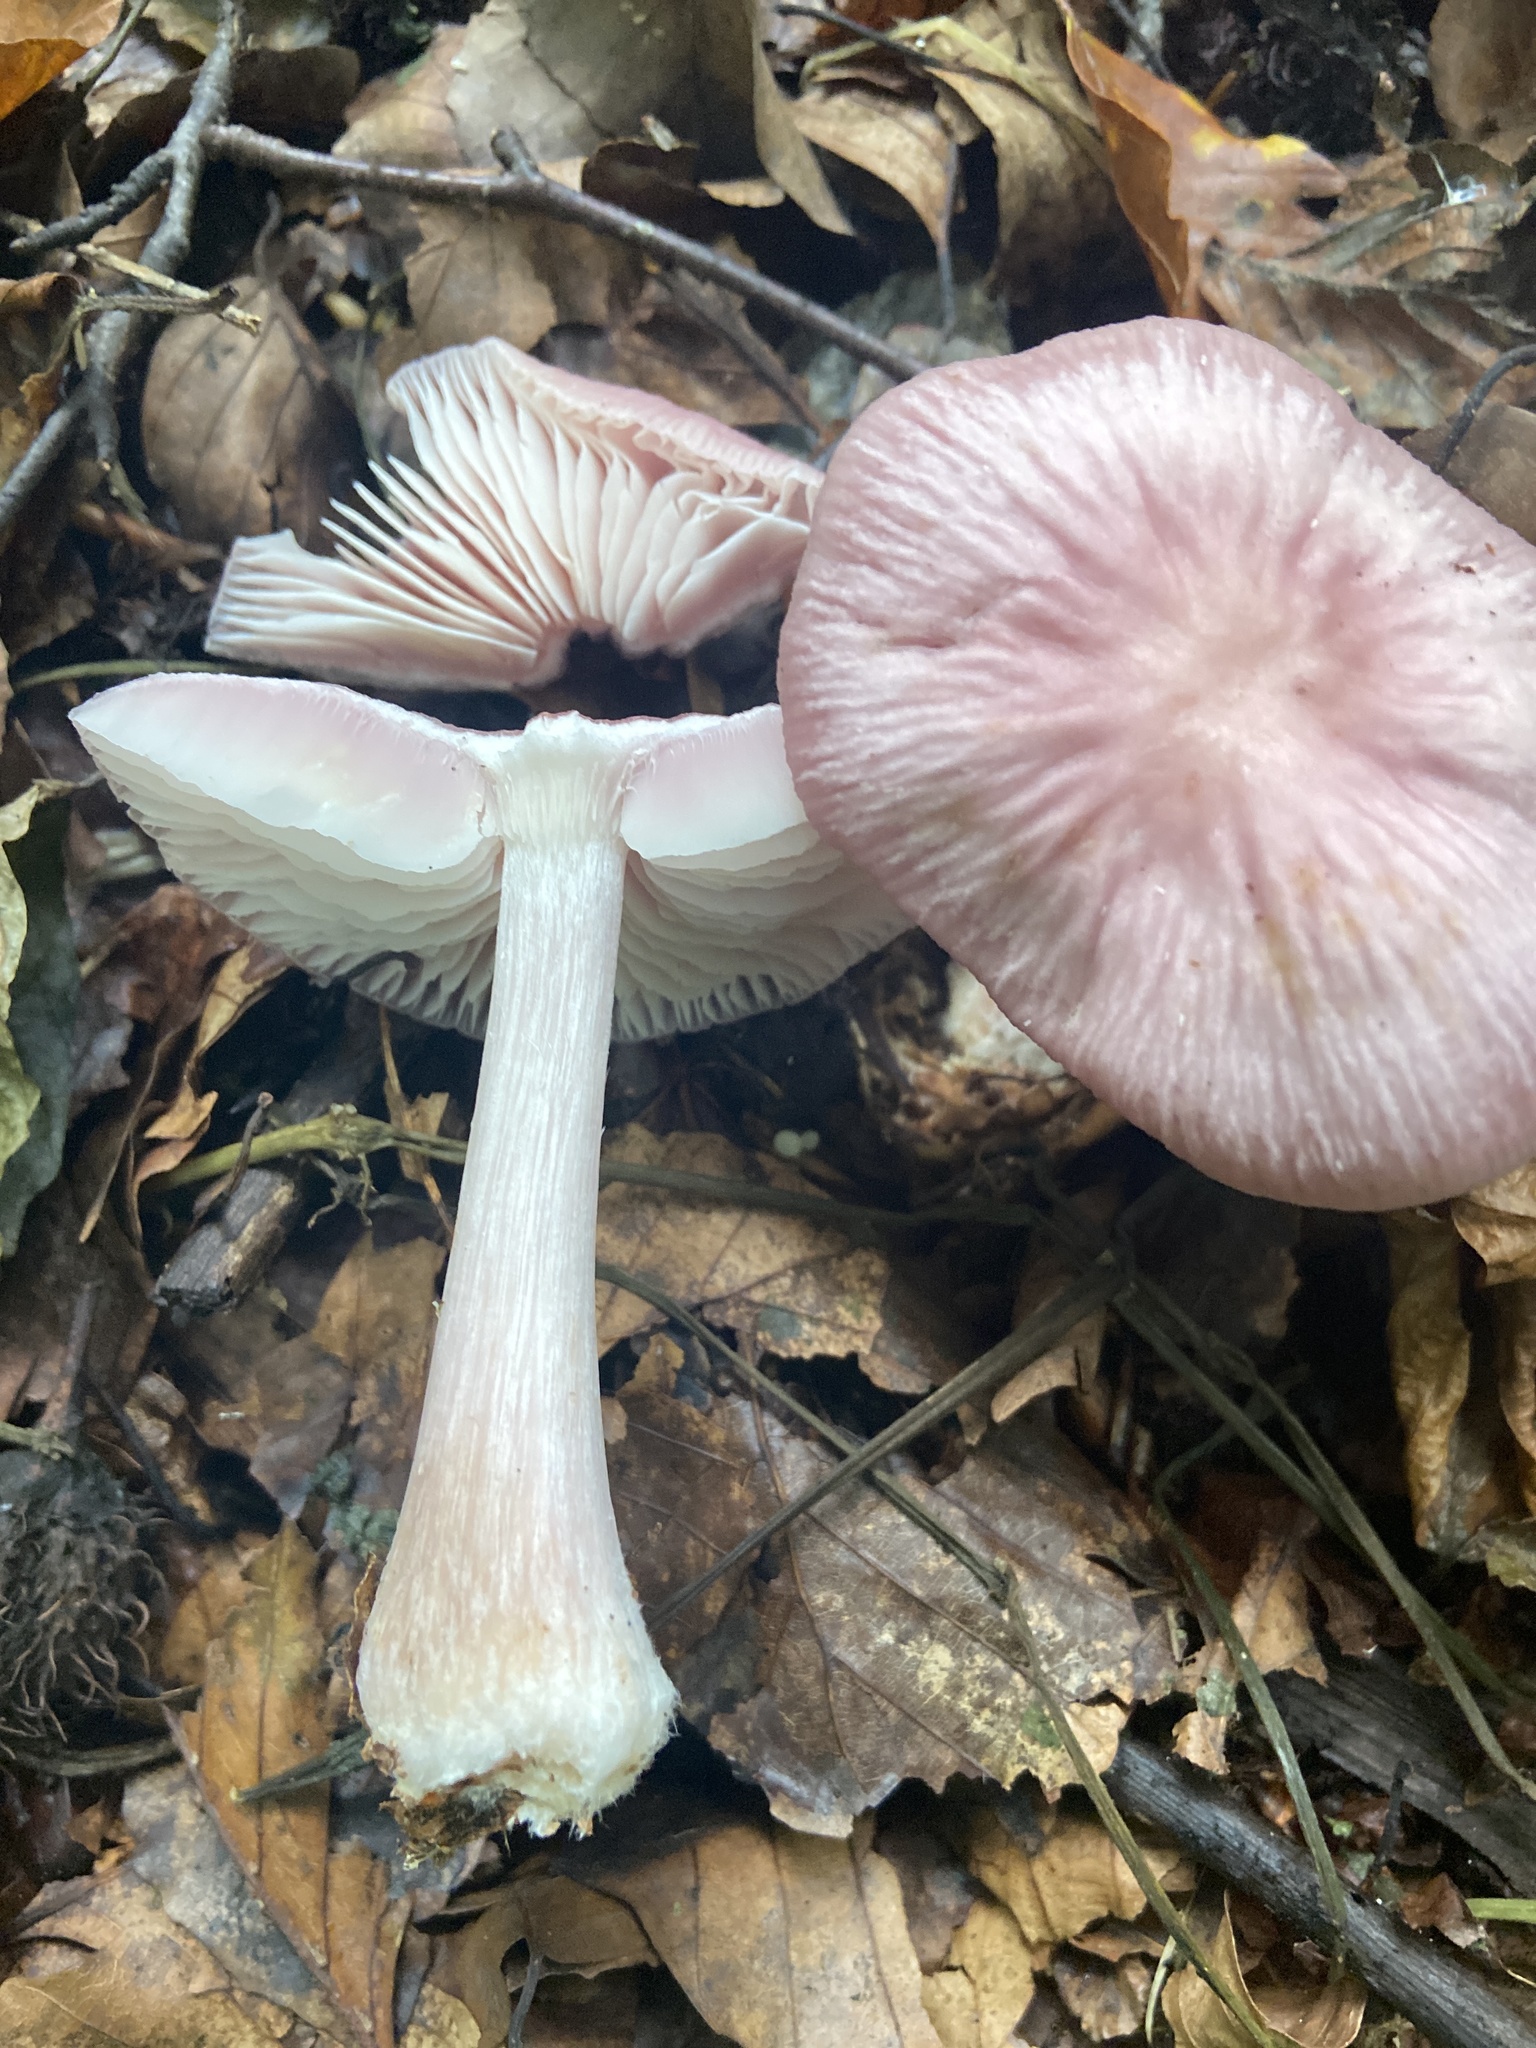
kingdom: Fungi
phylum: Basidiomycota
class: Agaricomycetes
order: Agaricales
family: Mycenaceae
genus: Mycena
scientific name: Mycena rosea
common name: Rosy bonnet
